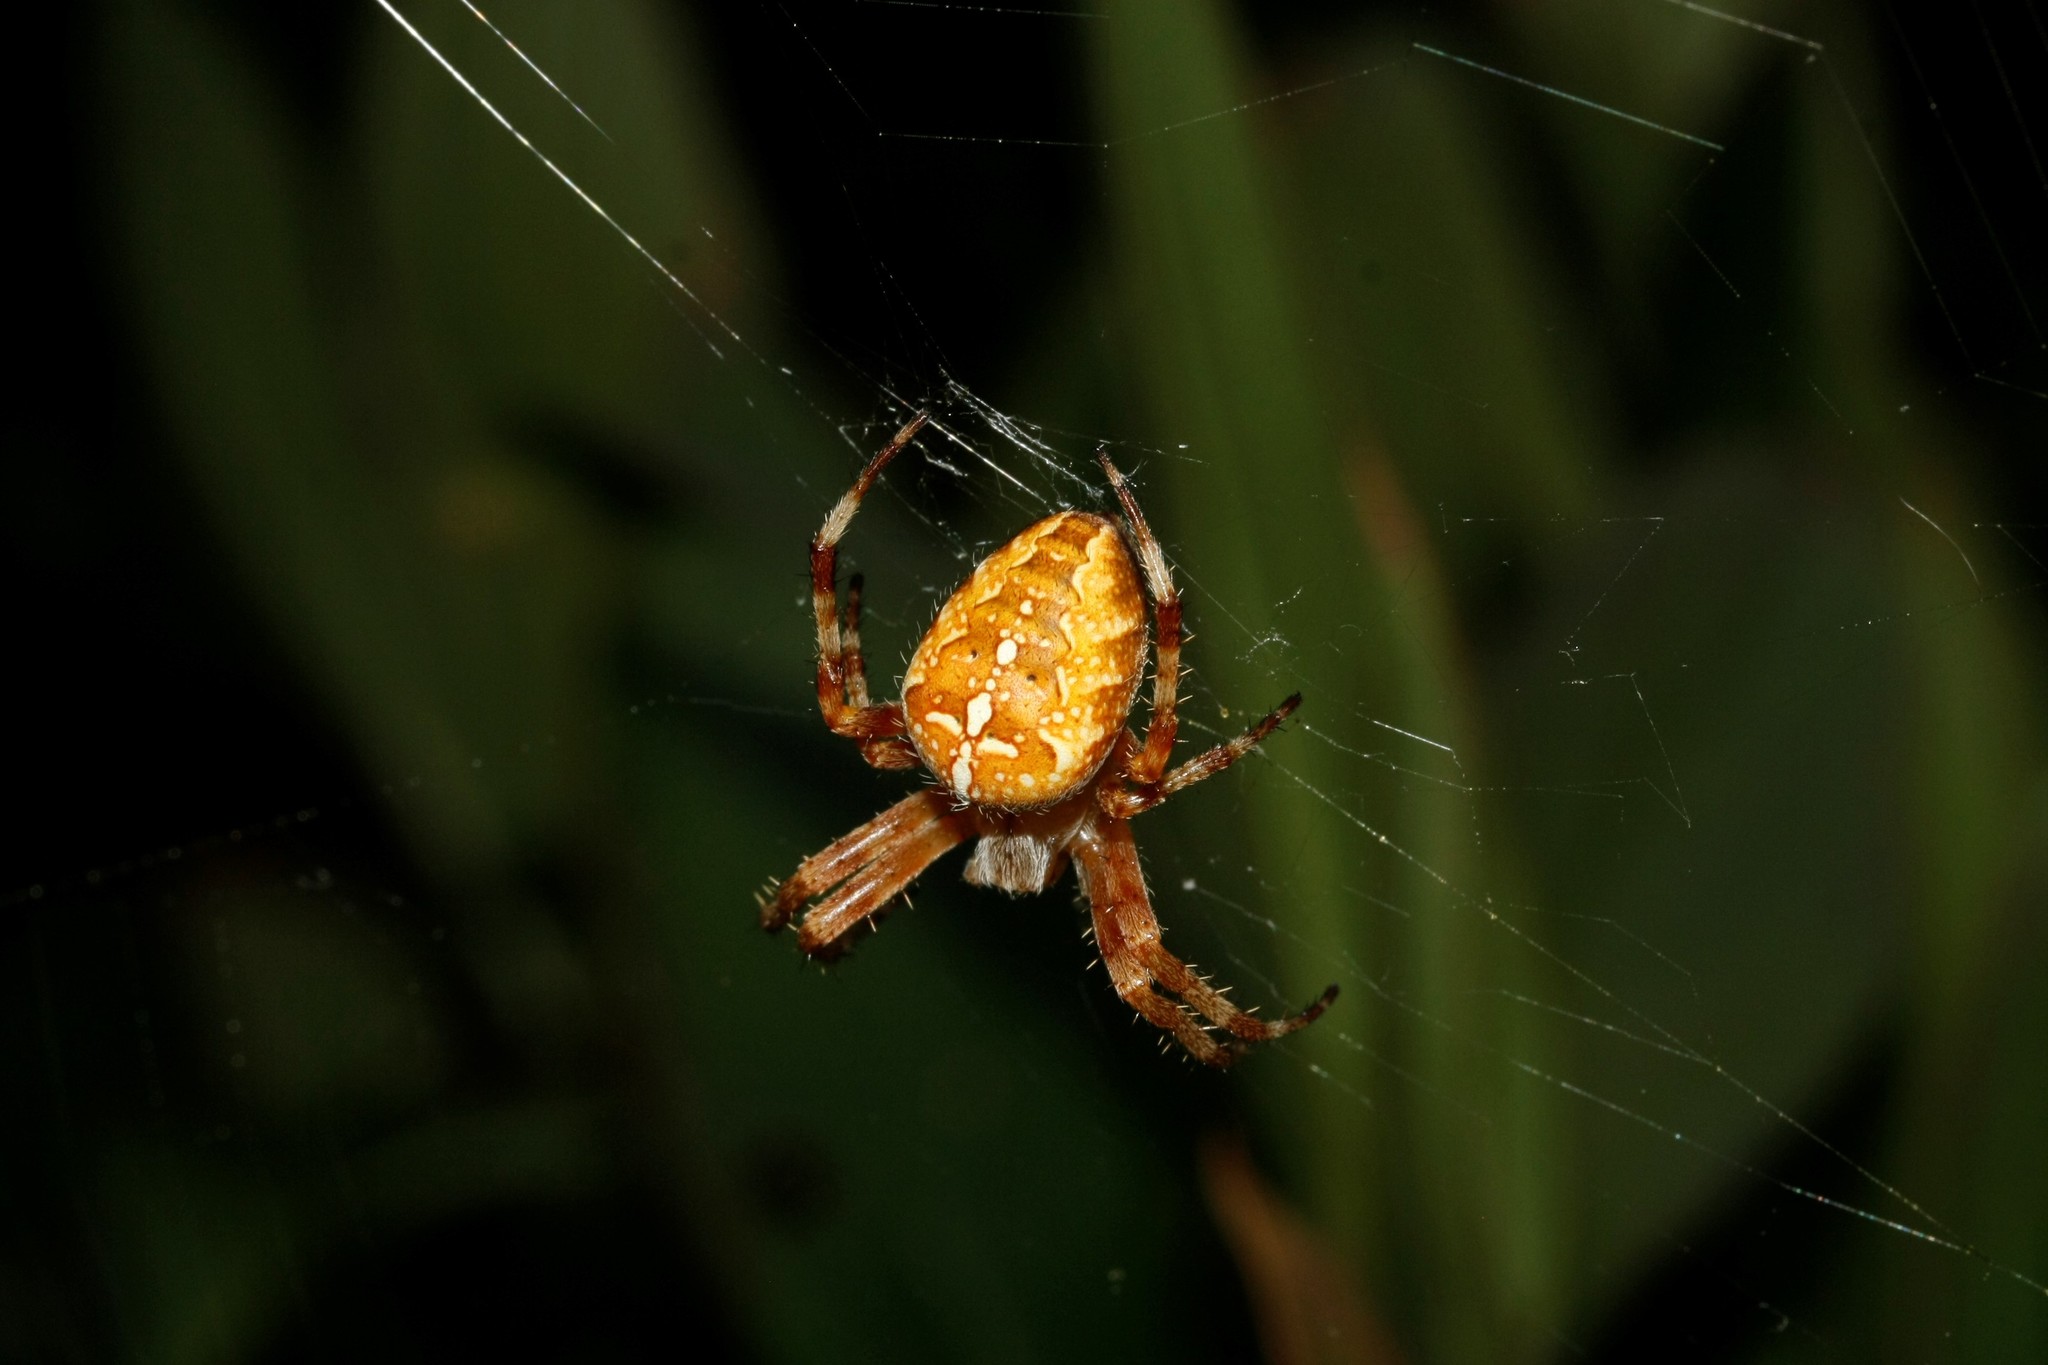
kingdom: Animalia
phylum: Arthropoda
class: Arachnida
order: Araneae
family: Araneidae
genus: Araneus
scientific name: Araneus diadematus
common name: Cross orbweaver
